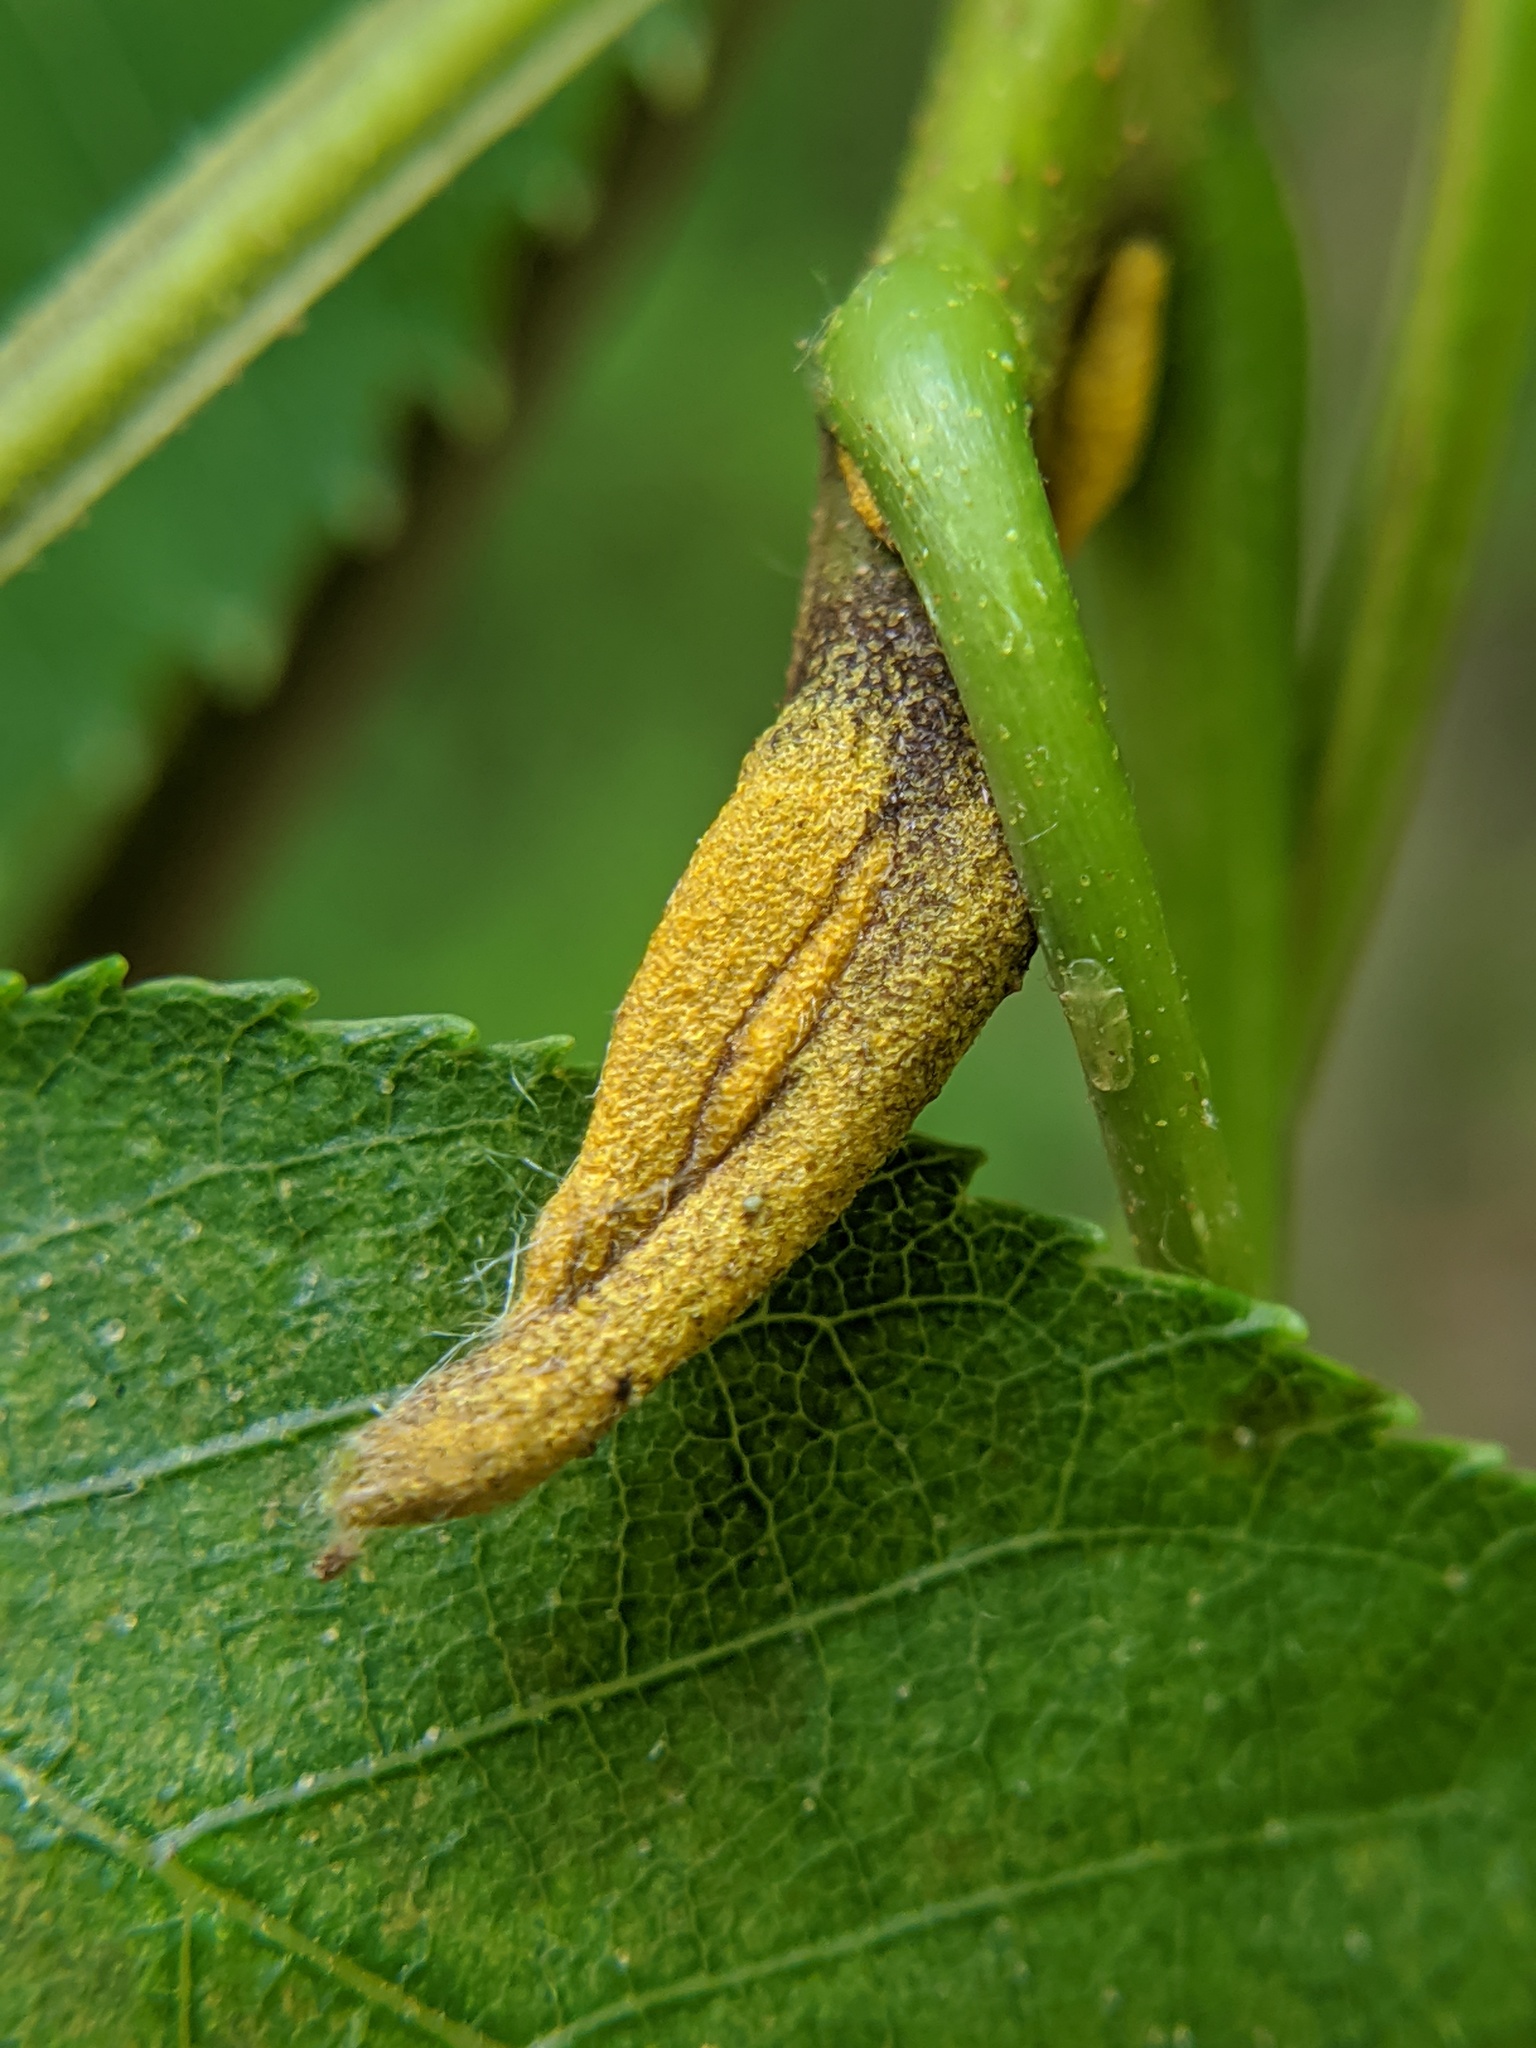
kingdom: Plantae
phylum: Tracheophyta
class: Magnoliopsida
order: Fagales
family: Juglandaceae
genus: Carya
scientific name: Carya cordiformis
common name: Bitternut hickory
